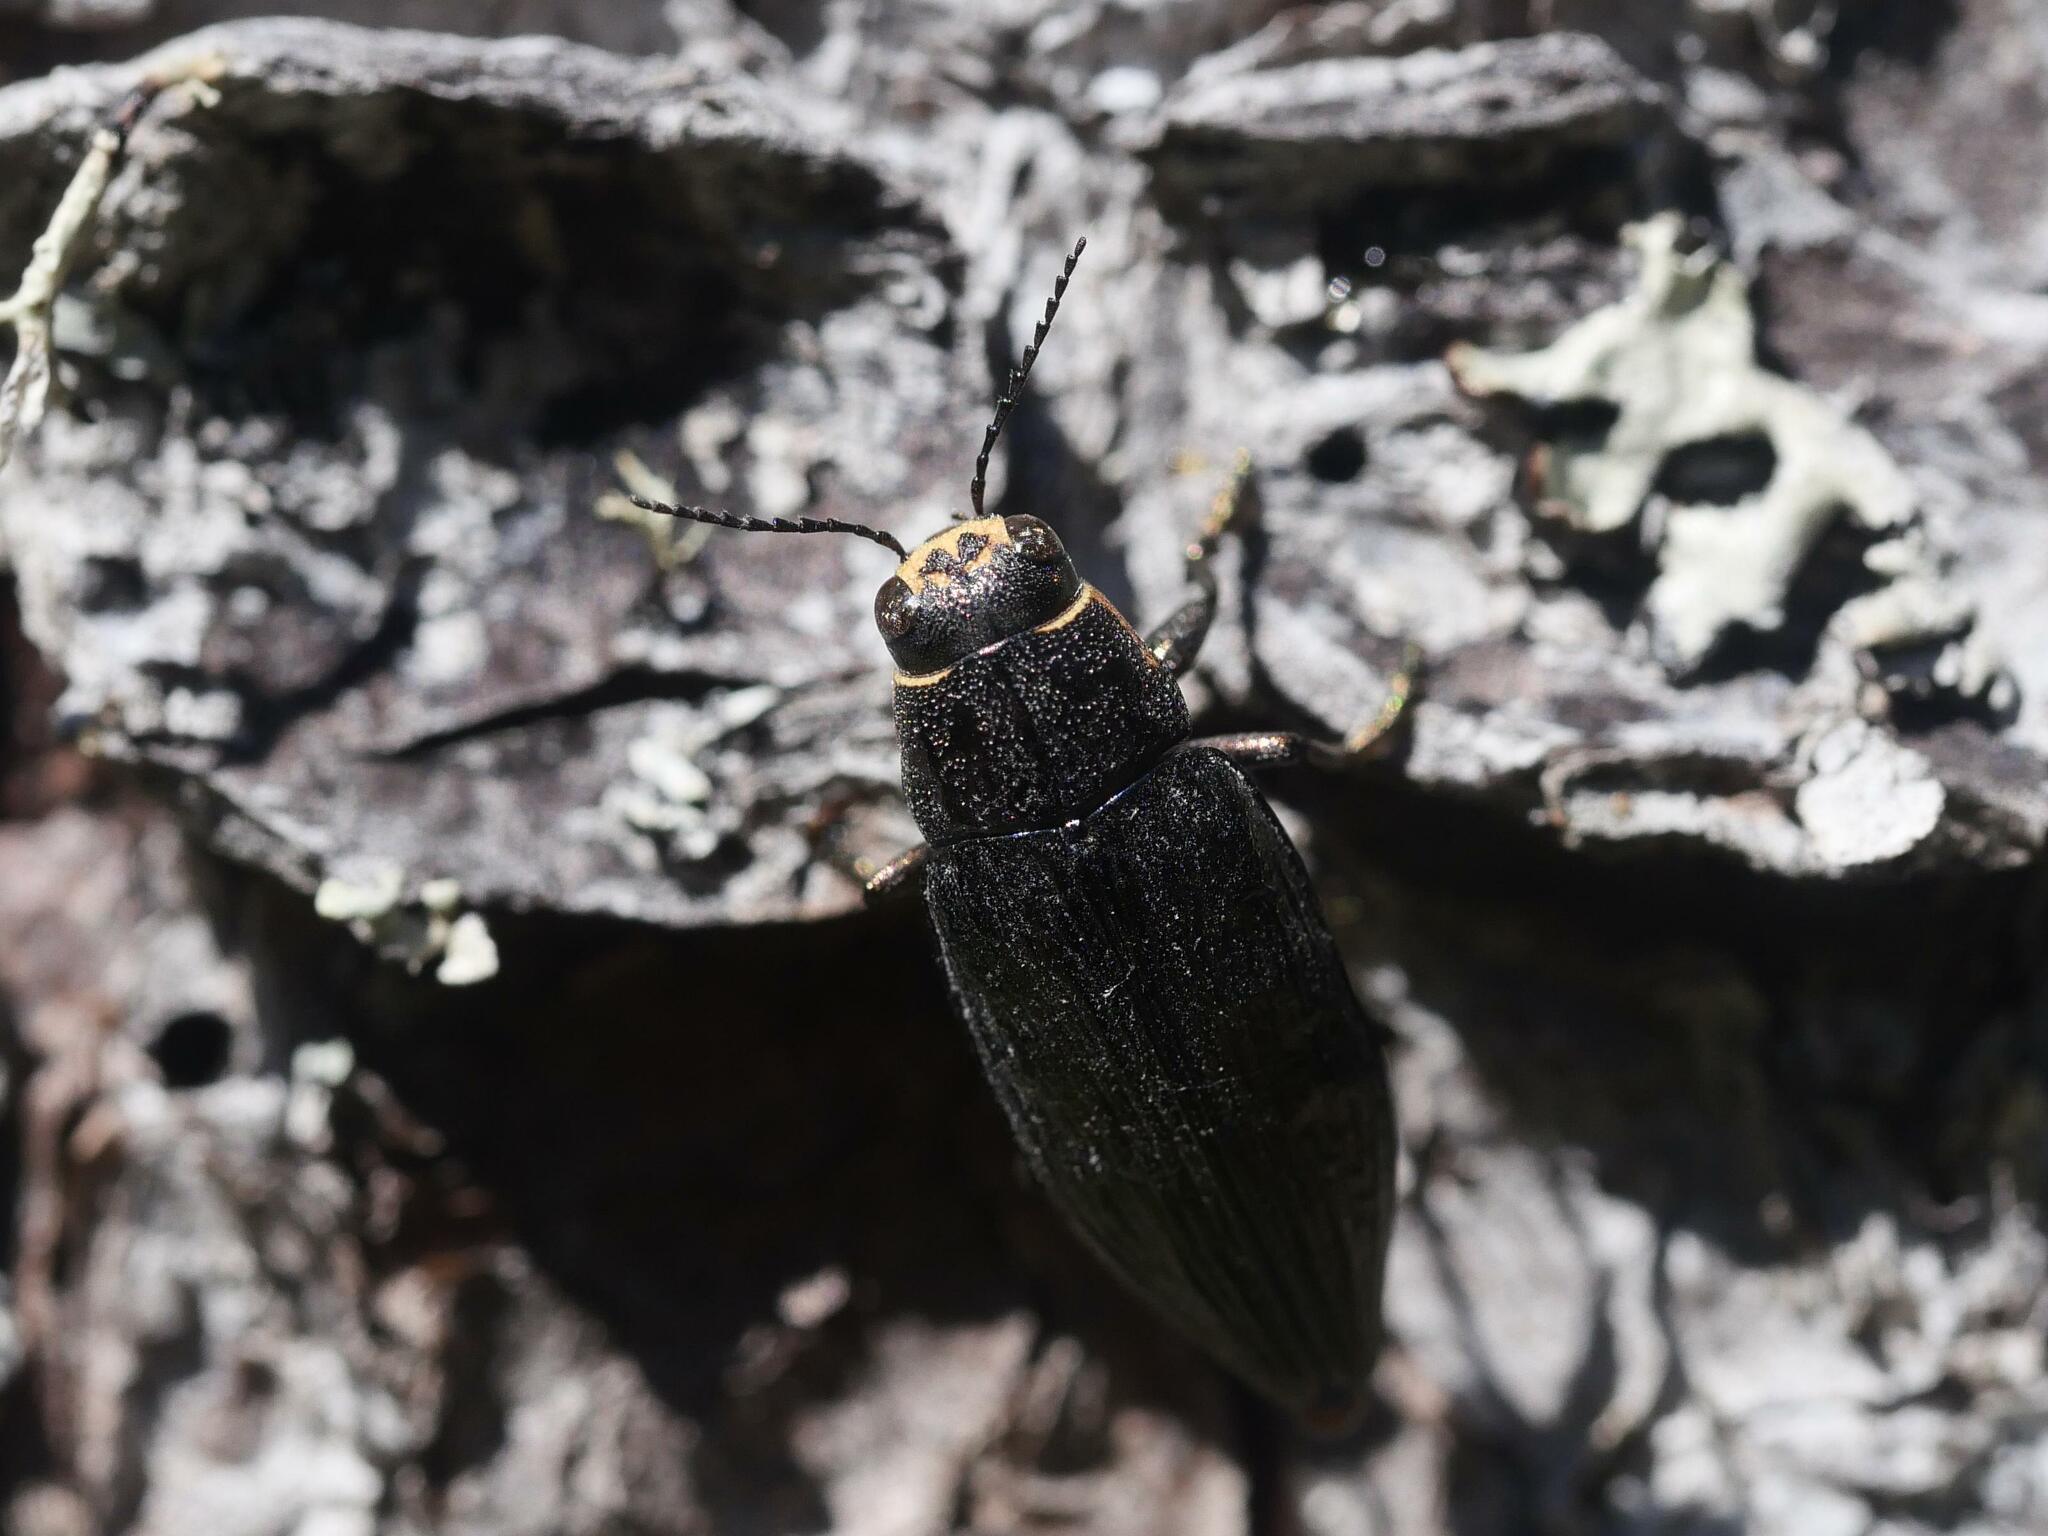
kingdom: Animalia
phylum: Arthropoda
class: Insecta
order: Coleoptera
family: Buprestidae
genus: Buprestis
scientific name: Buprestis maculativentris
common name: Spotted-belly buprestid beetle
